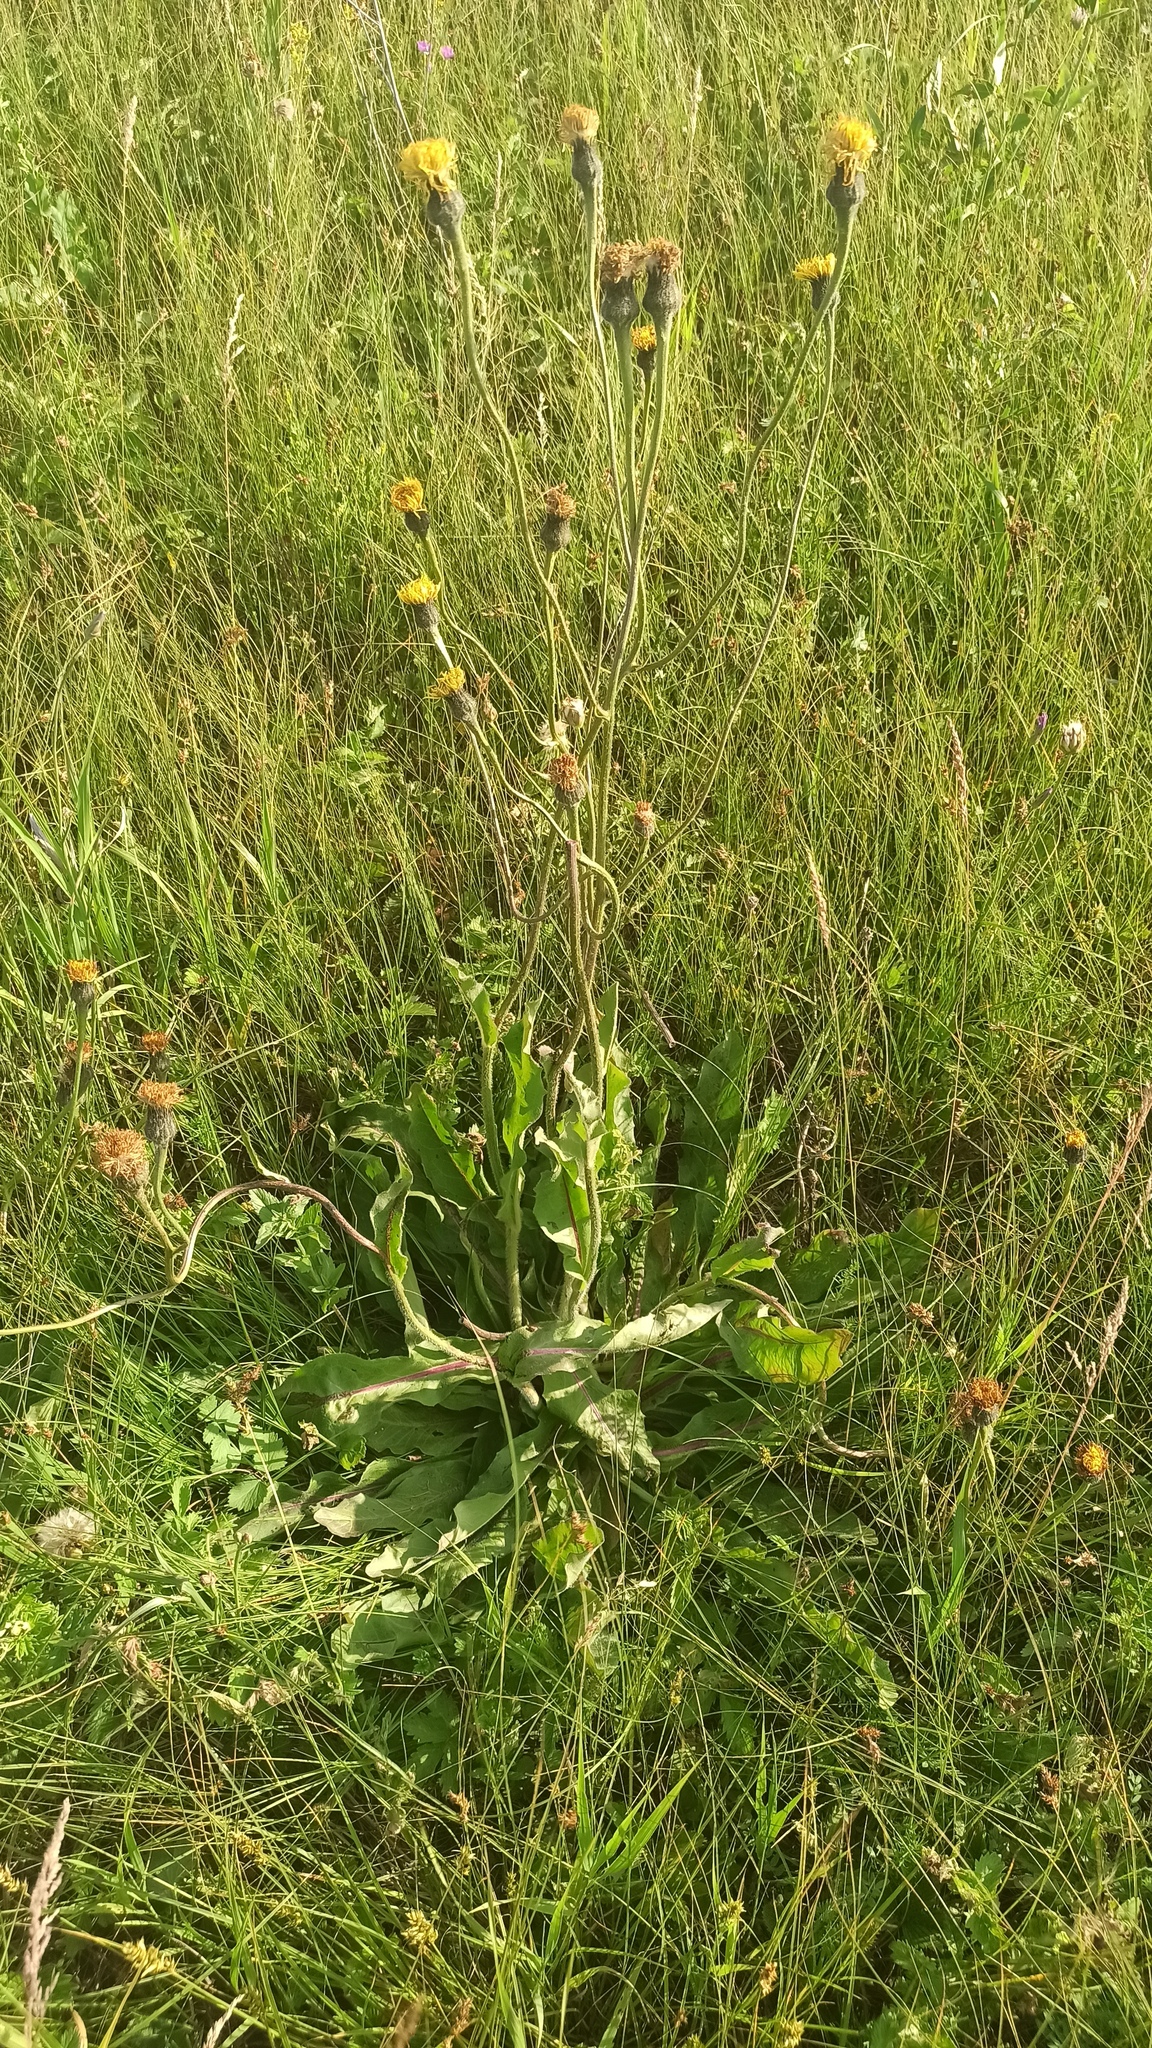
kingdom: Plantae
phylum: Tracheophyta
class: Magnoliopsida
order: Asterales
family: Asteraceae
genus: Trommsdorffia
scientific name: Trommsdorffia maculata
